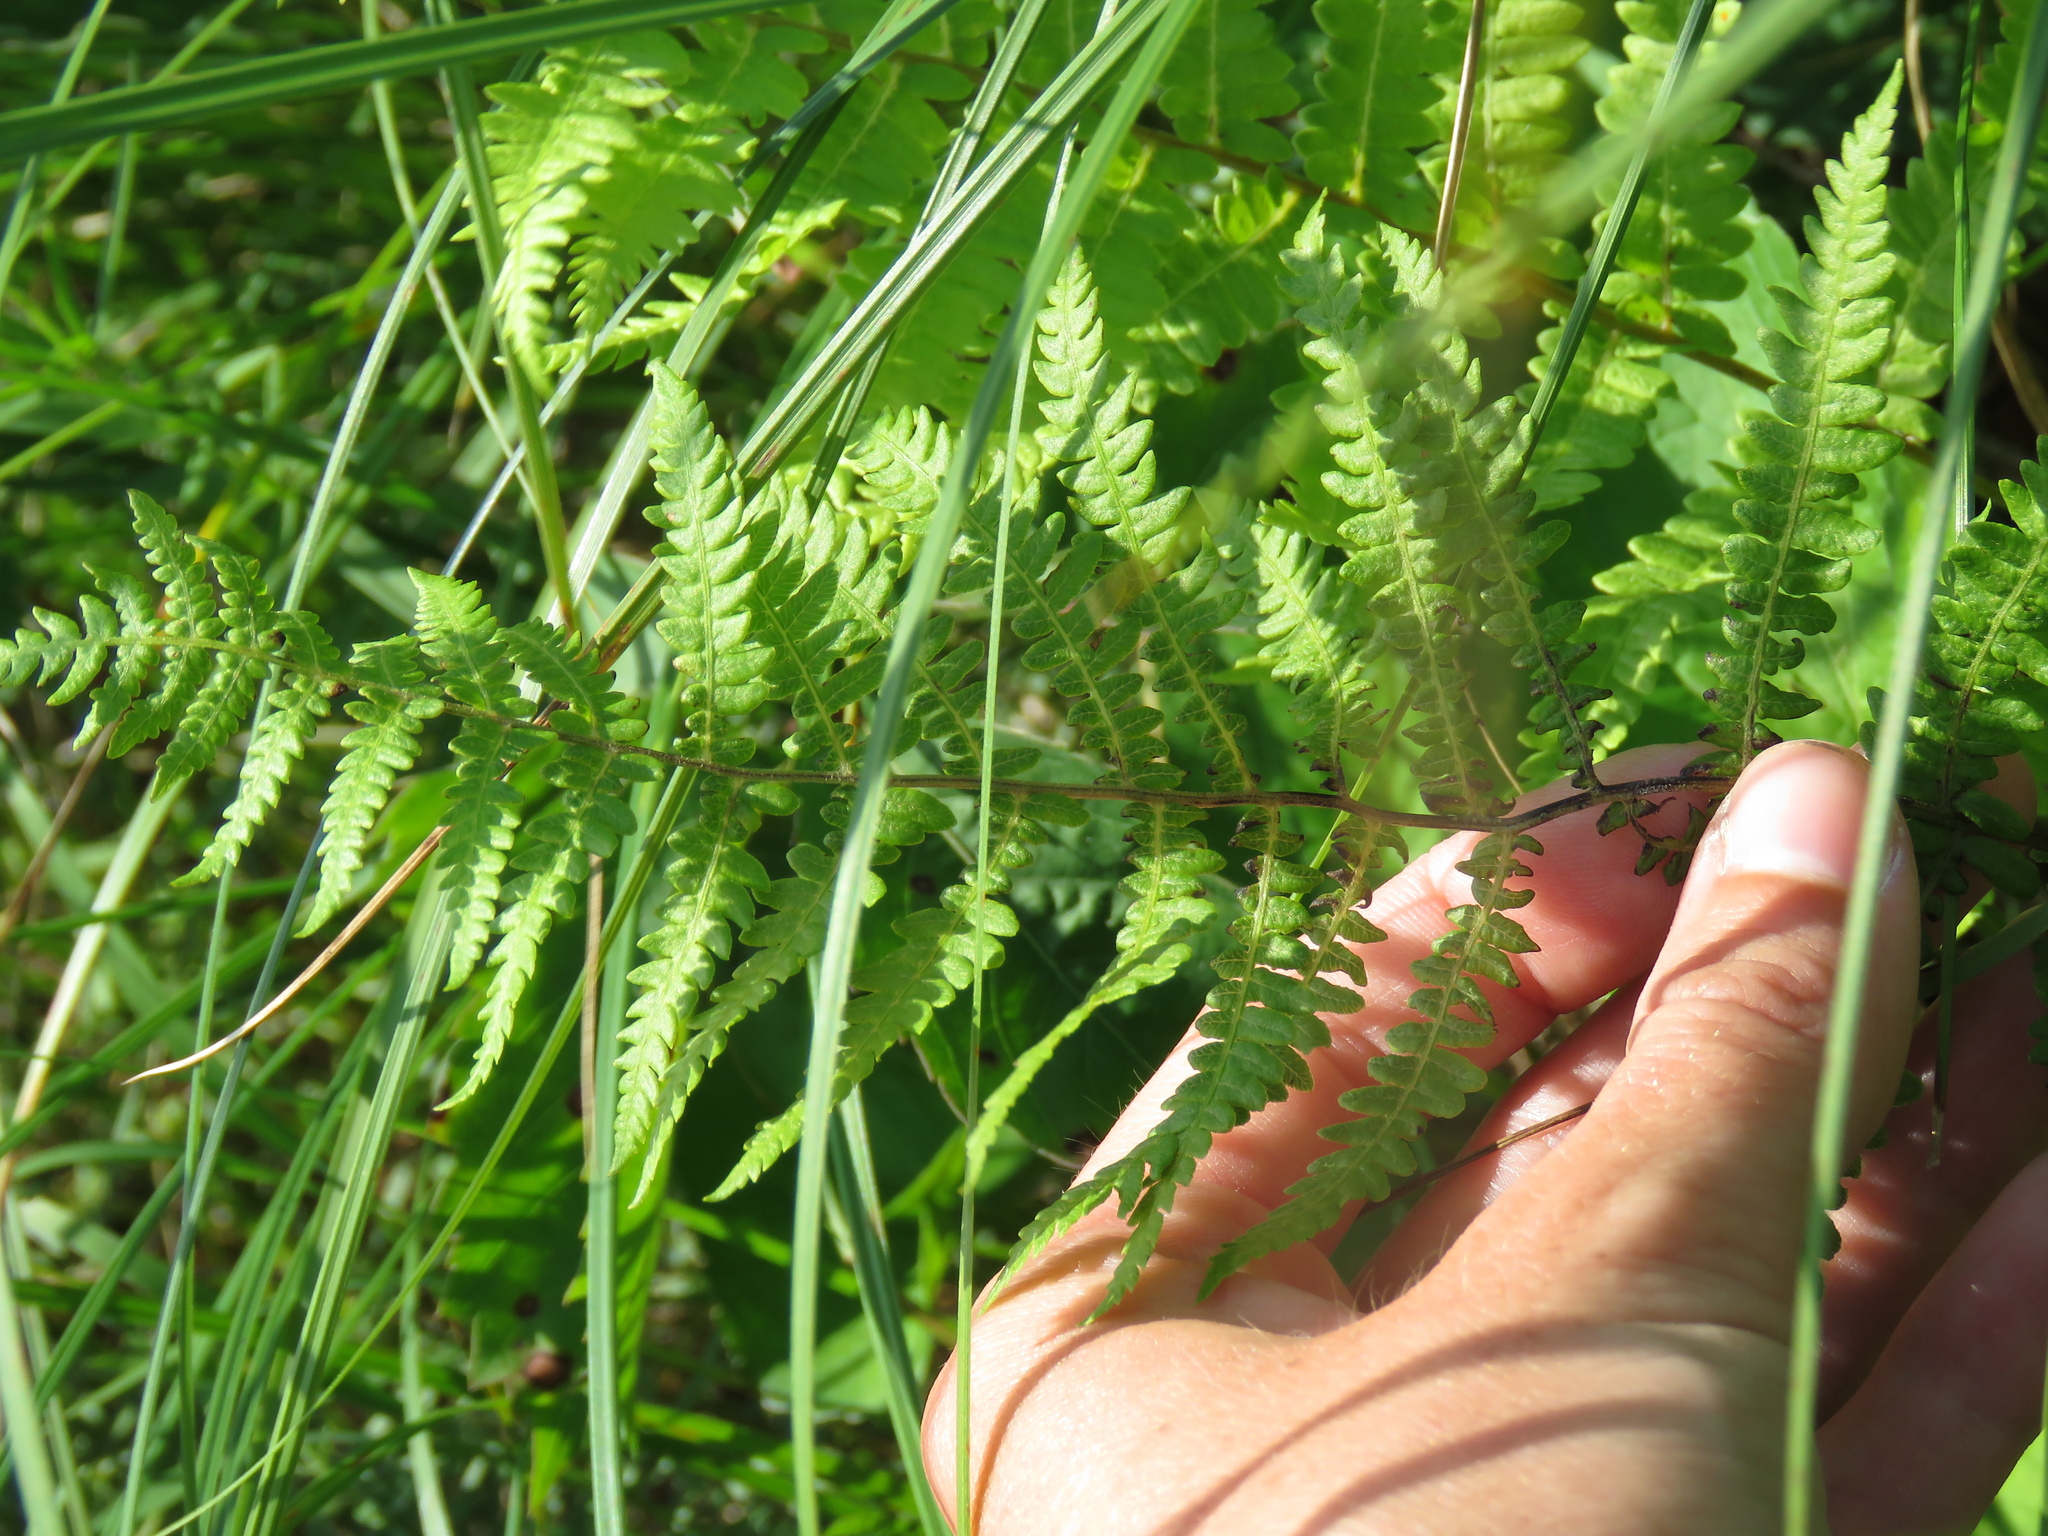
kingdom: Plantae
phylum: Tracheophyta
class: Polypodiopsida
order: Polypodiales
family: Thelypteridaceae
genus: Thelypteris
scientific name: Thelypteris palustris
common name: Marsh fern
